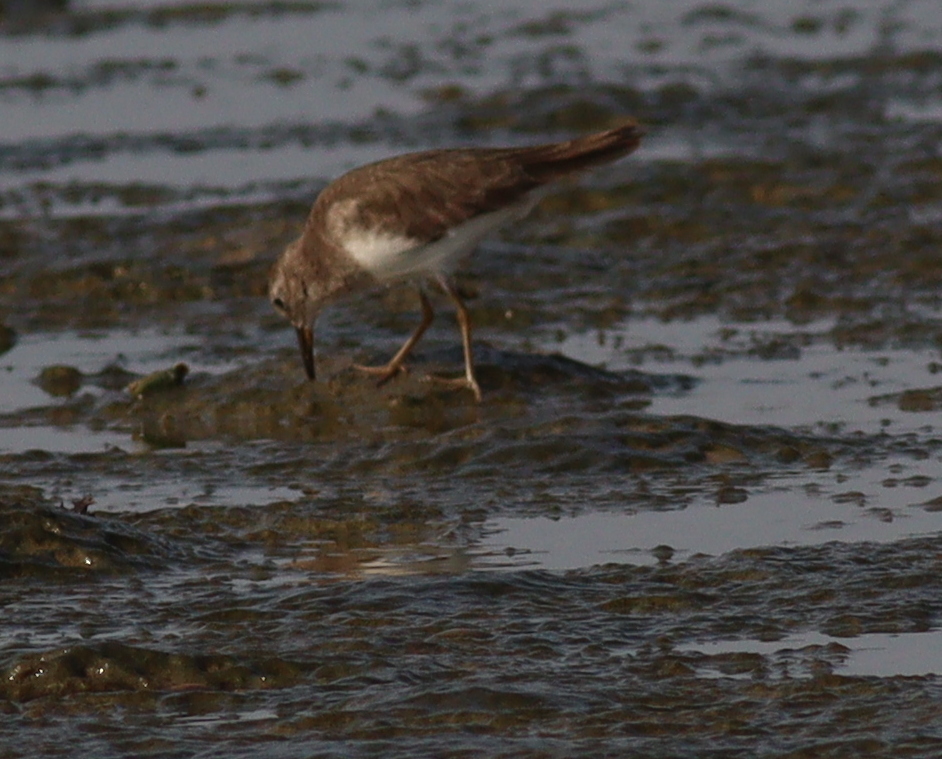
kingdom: Animalia
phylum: Chordata
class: Aves
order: Charadriiformes
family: Scolopacidae
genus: Calidris
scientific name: Calidris temminckii
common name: Temminck's stint
